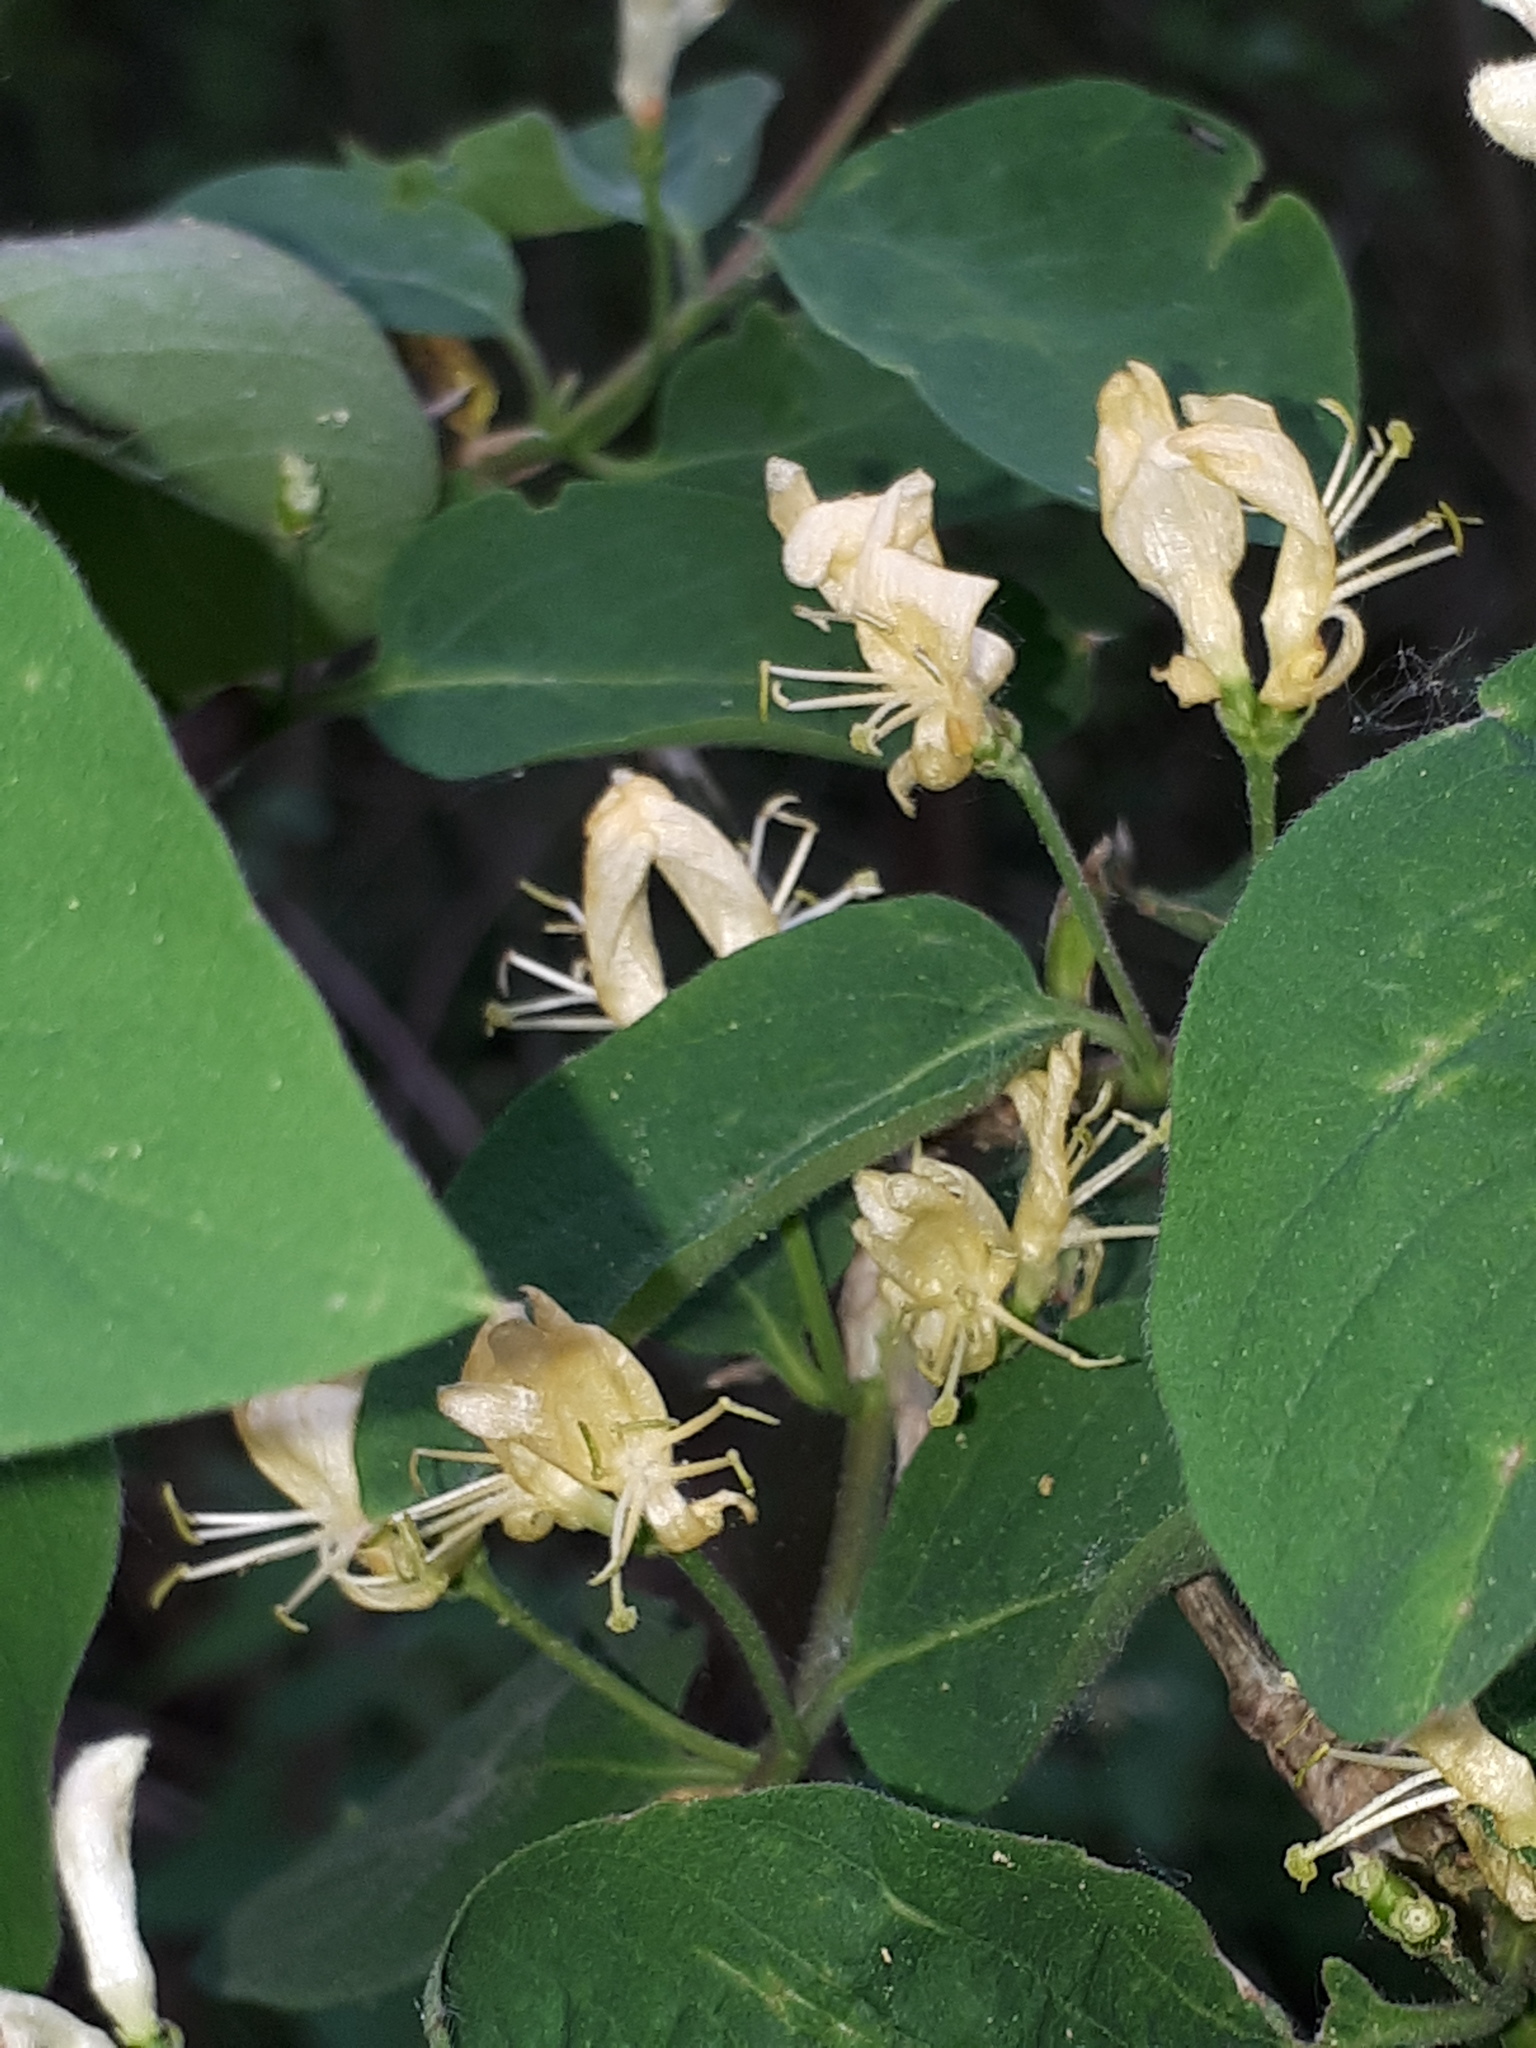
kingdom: Plantae
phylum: Tracheophyta
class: Magnoliopsida
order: Dipsacales
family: Caprifoliaceae
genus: Lonicera
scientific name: Lonicera xylosteum
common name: Fly honeysuckle
